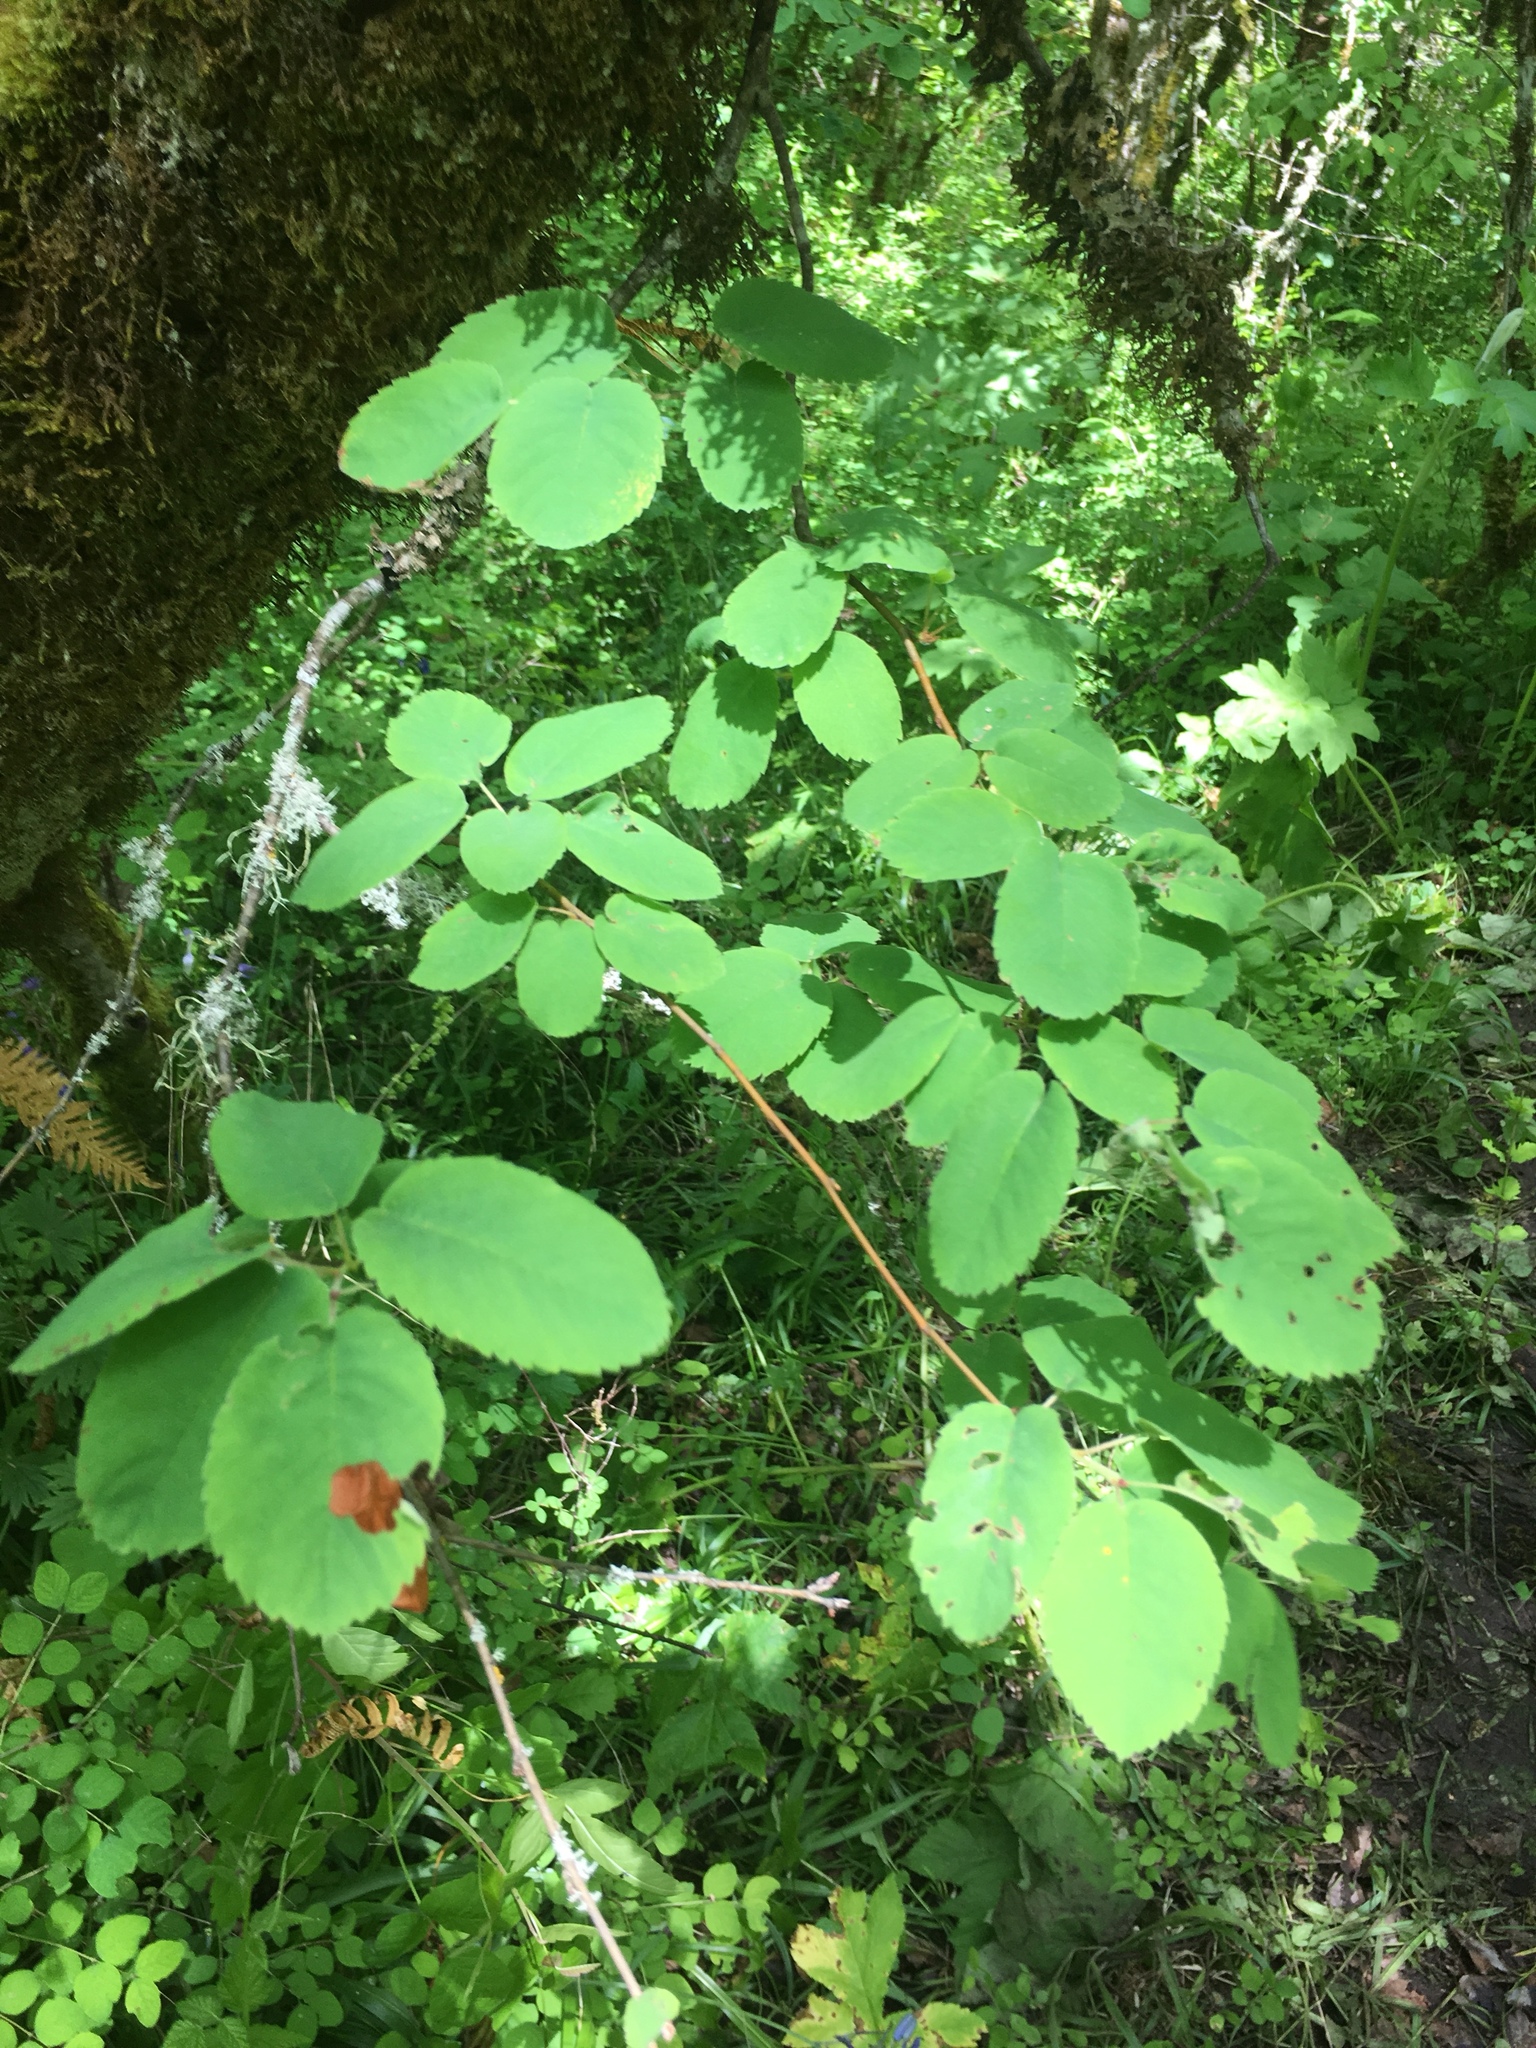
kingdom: Plantae
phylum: Tracheophyta
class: Magnoliopsida
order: Rosales
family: Rosaceae
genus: Amelanchier
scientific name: Amelanchier alnifolia
